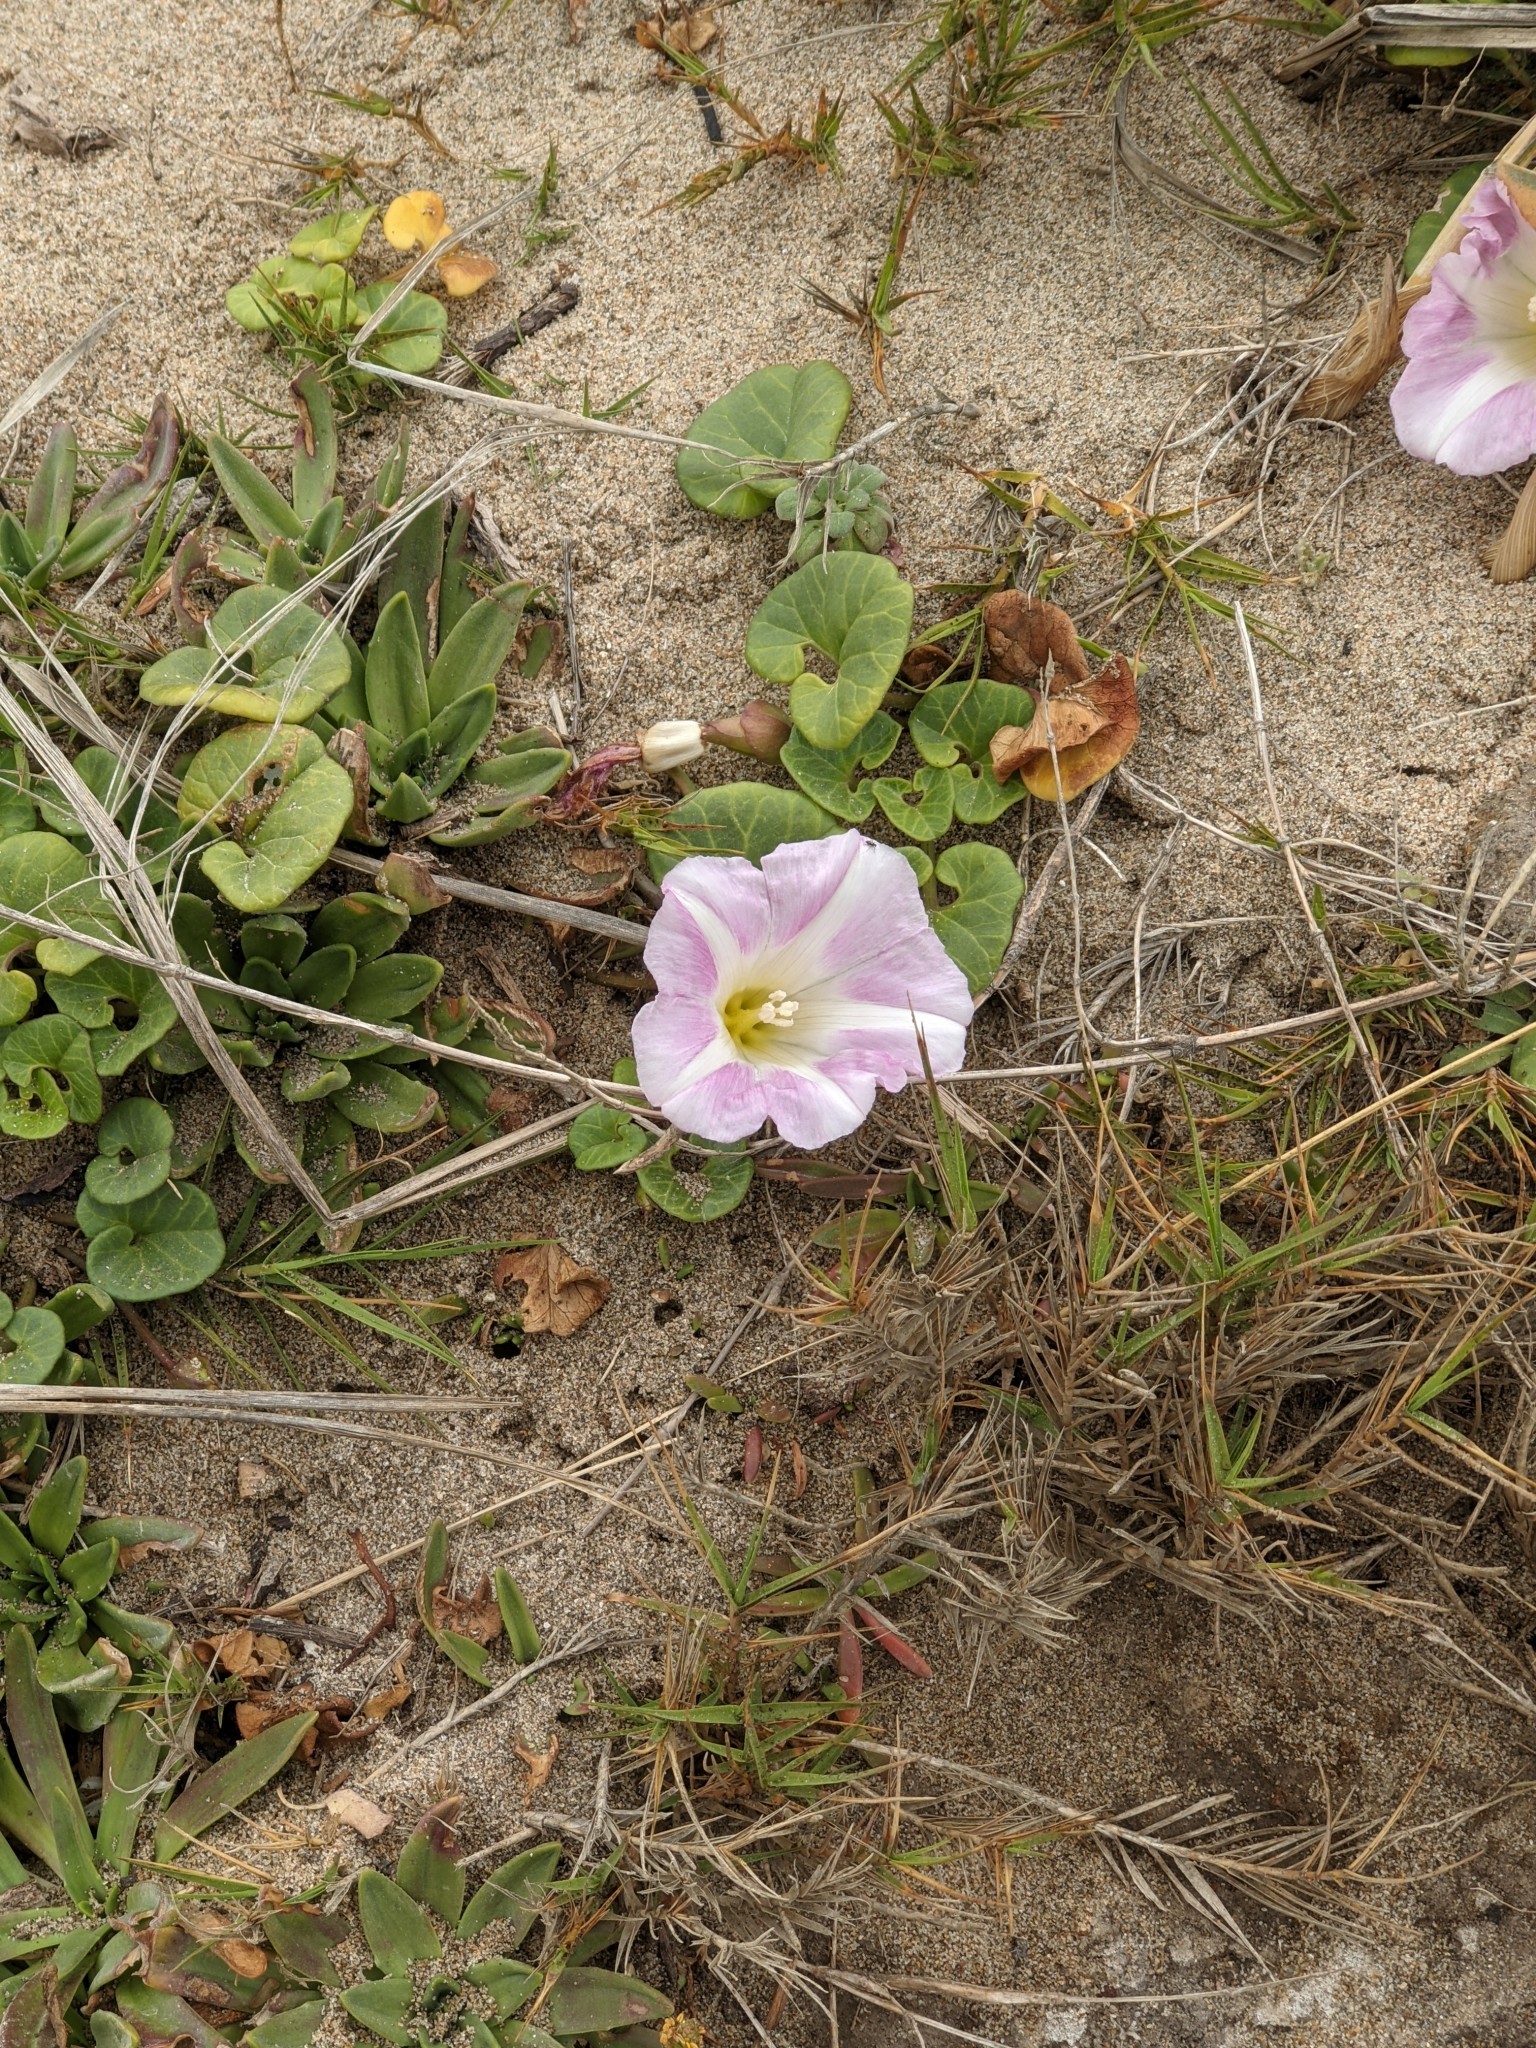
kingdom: Plantae
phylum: Tracheophyta
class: Magnoliopsida
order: Solanales
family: Convolvulaceae
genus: Calystegia
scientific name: Calystegia soldanella
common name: Sea bindweed
